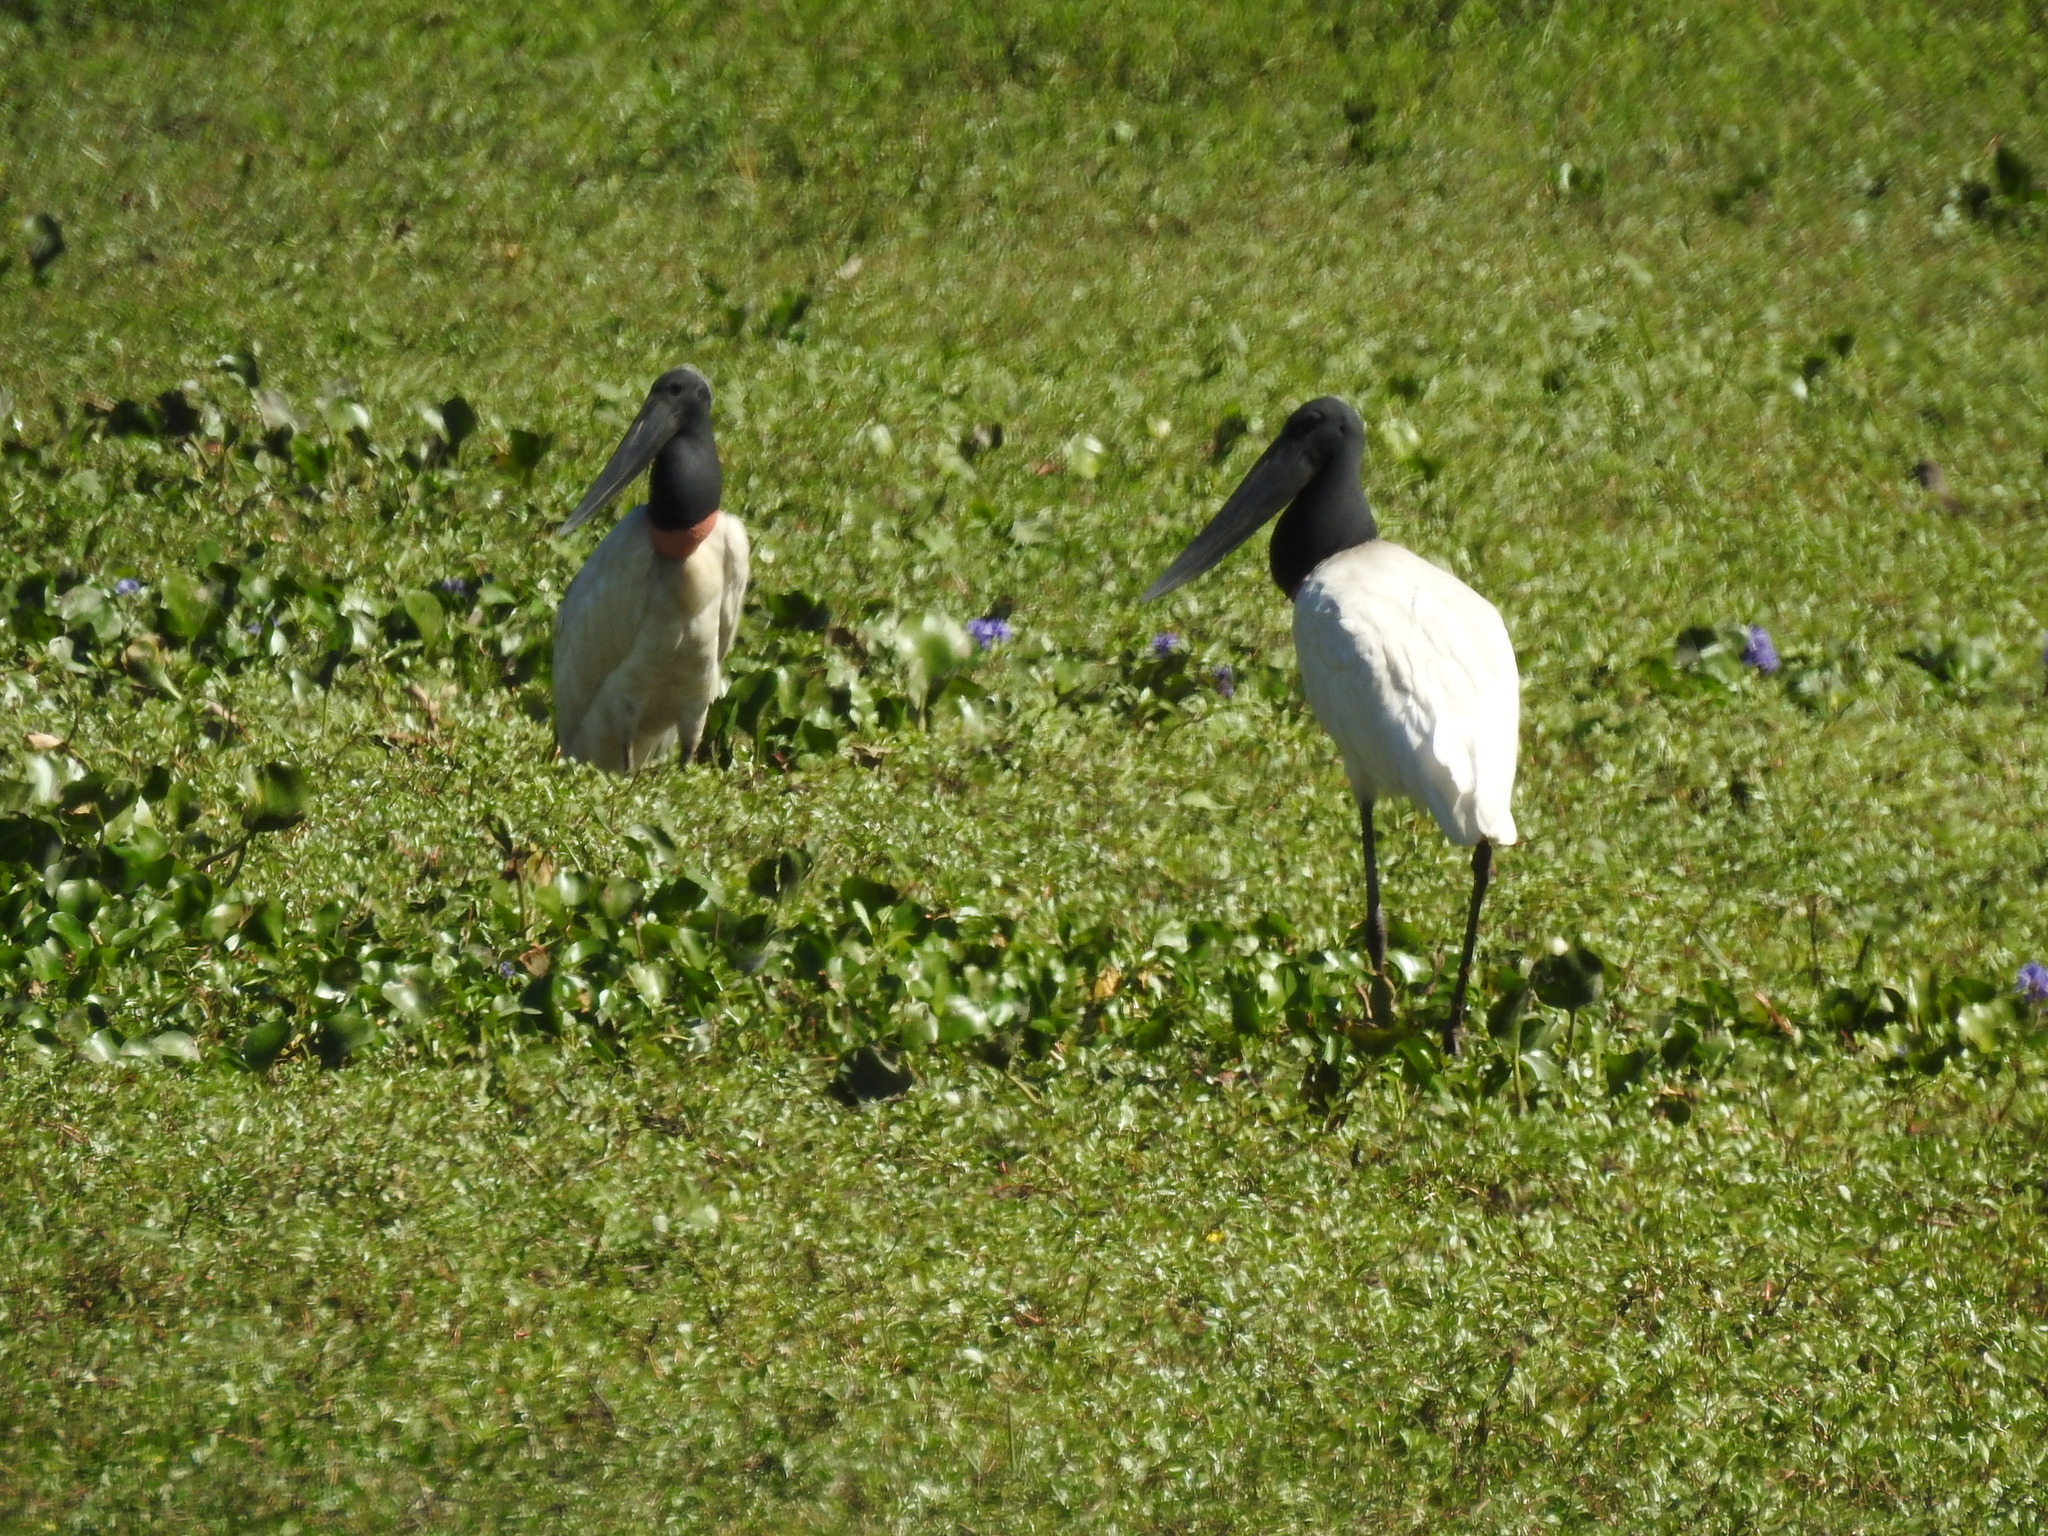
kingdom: Animalia
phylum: Chordata
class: Aves
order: Ciconiiformes
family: Ciconiidae
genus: Jabiru
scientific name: Jabiru mycteria
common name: Jabiru
